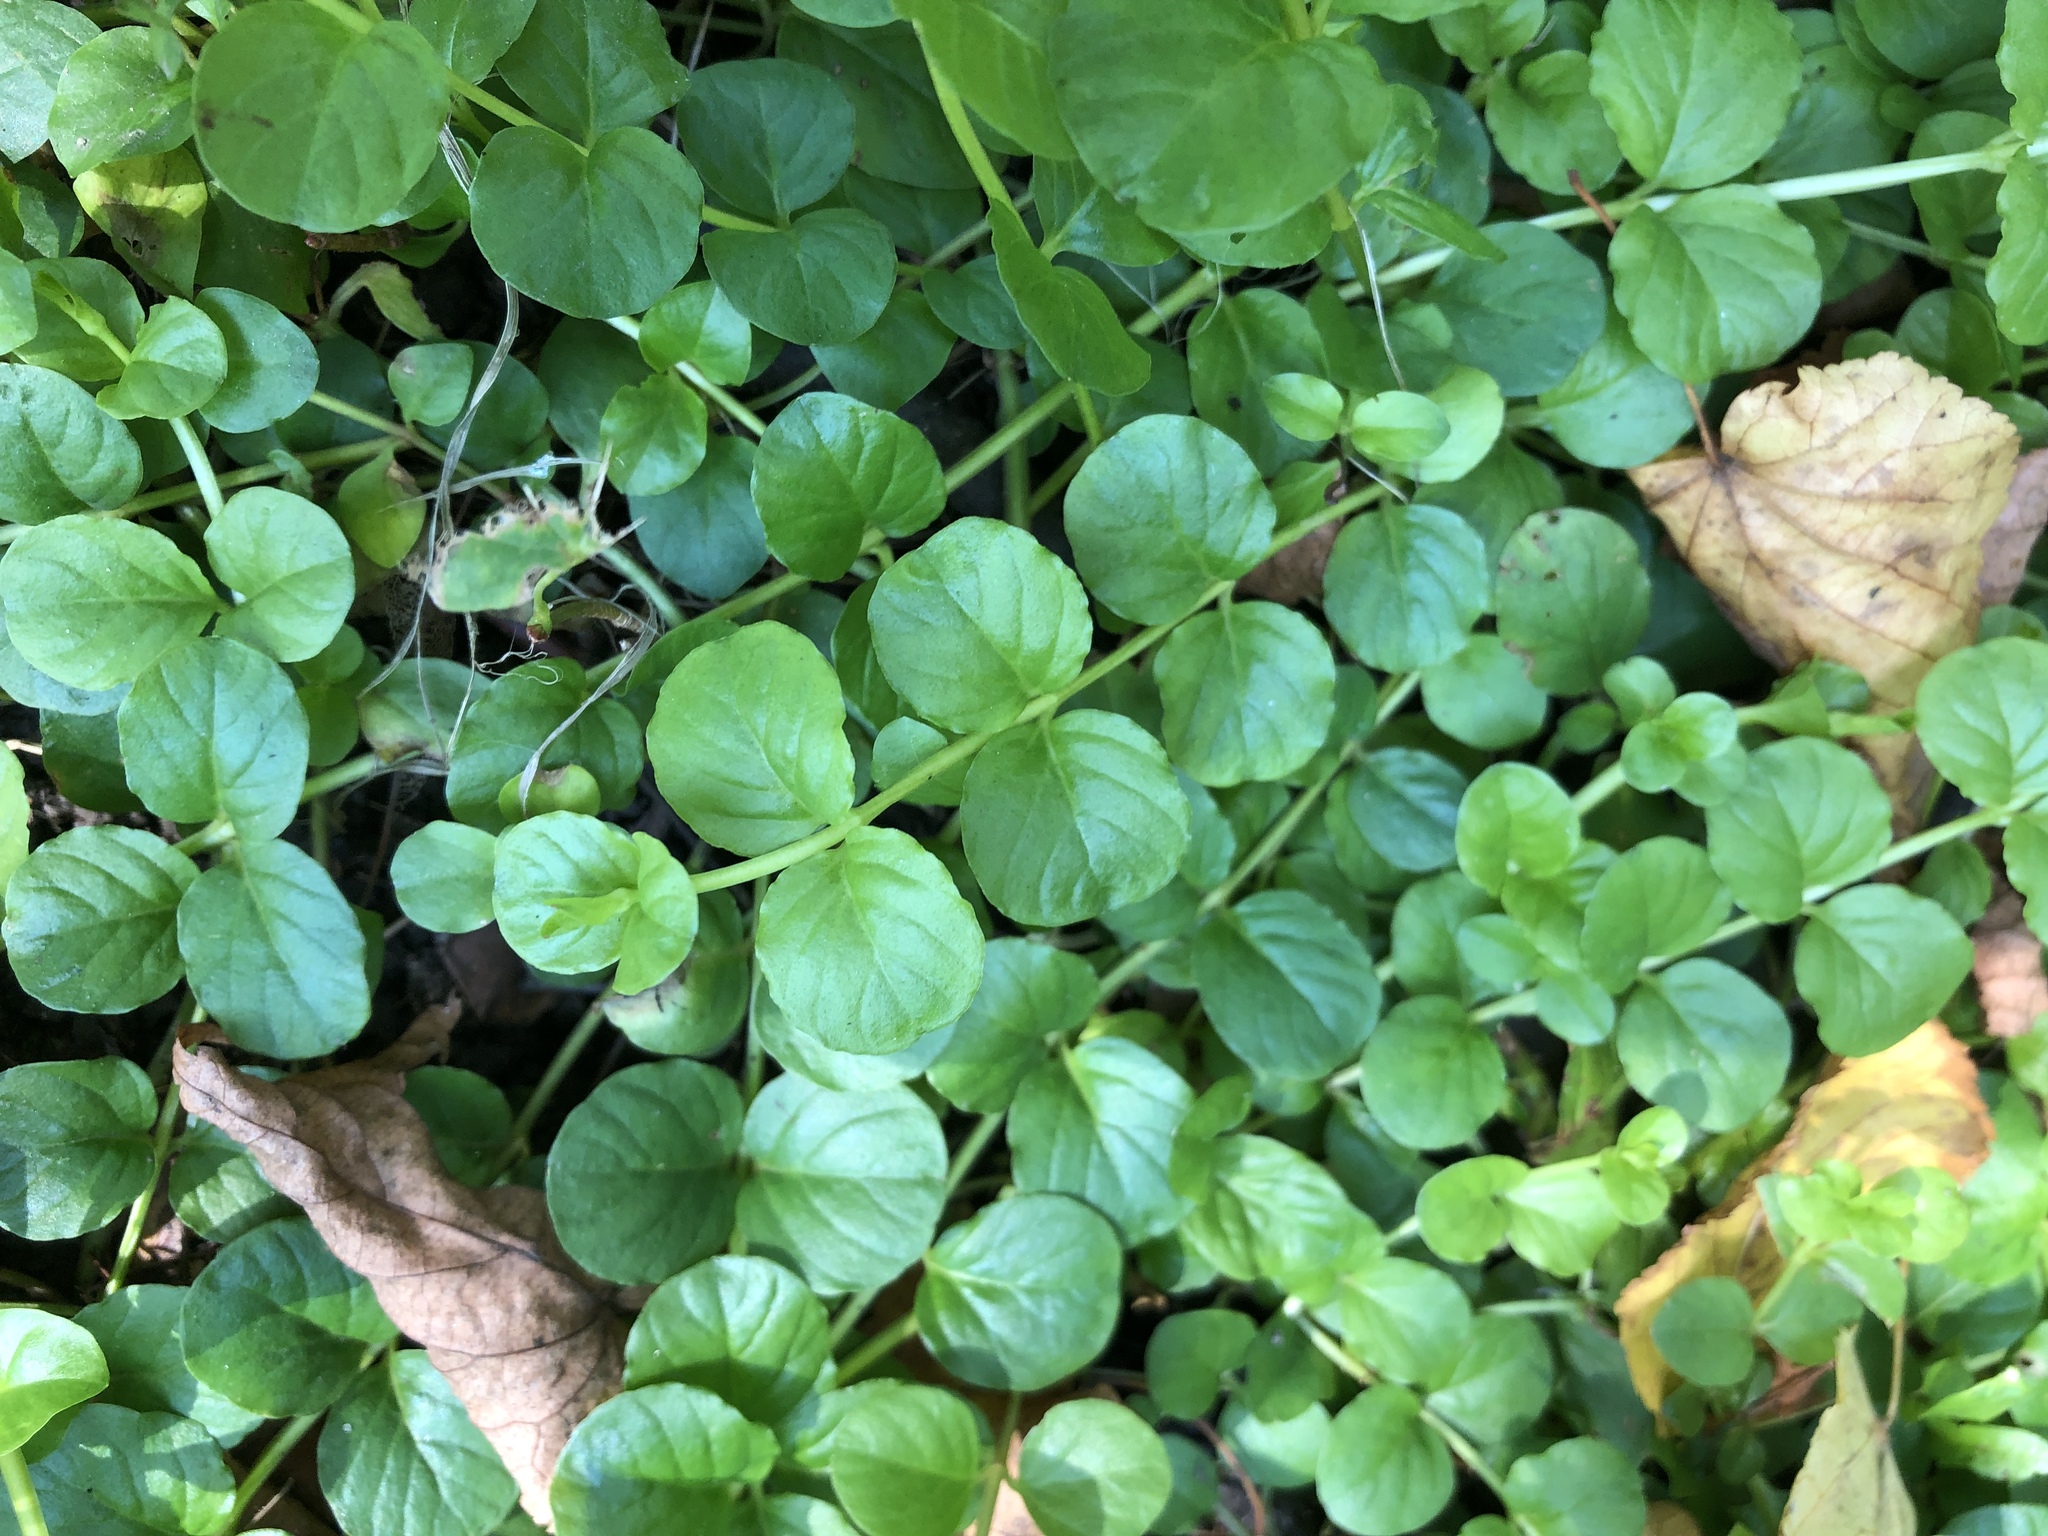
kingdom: Plantae
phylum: Tracheophyta
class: Magnoliopsida
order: Ericales
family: Primulaceae
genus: Lysimachia
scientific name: Lysimachia nummularia
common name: Moneywort
